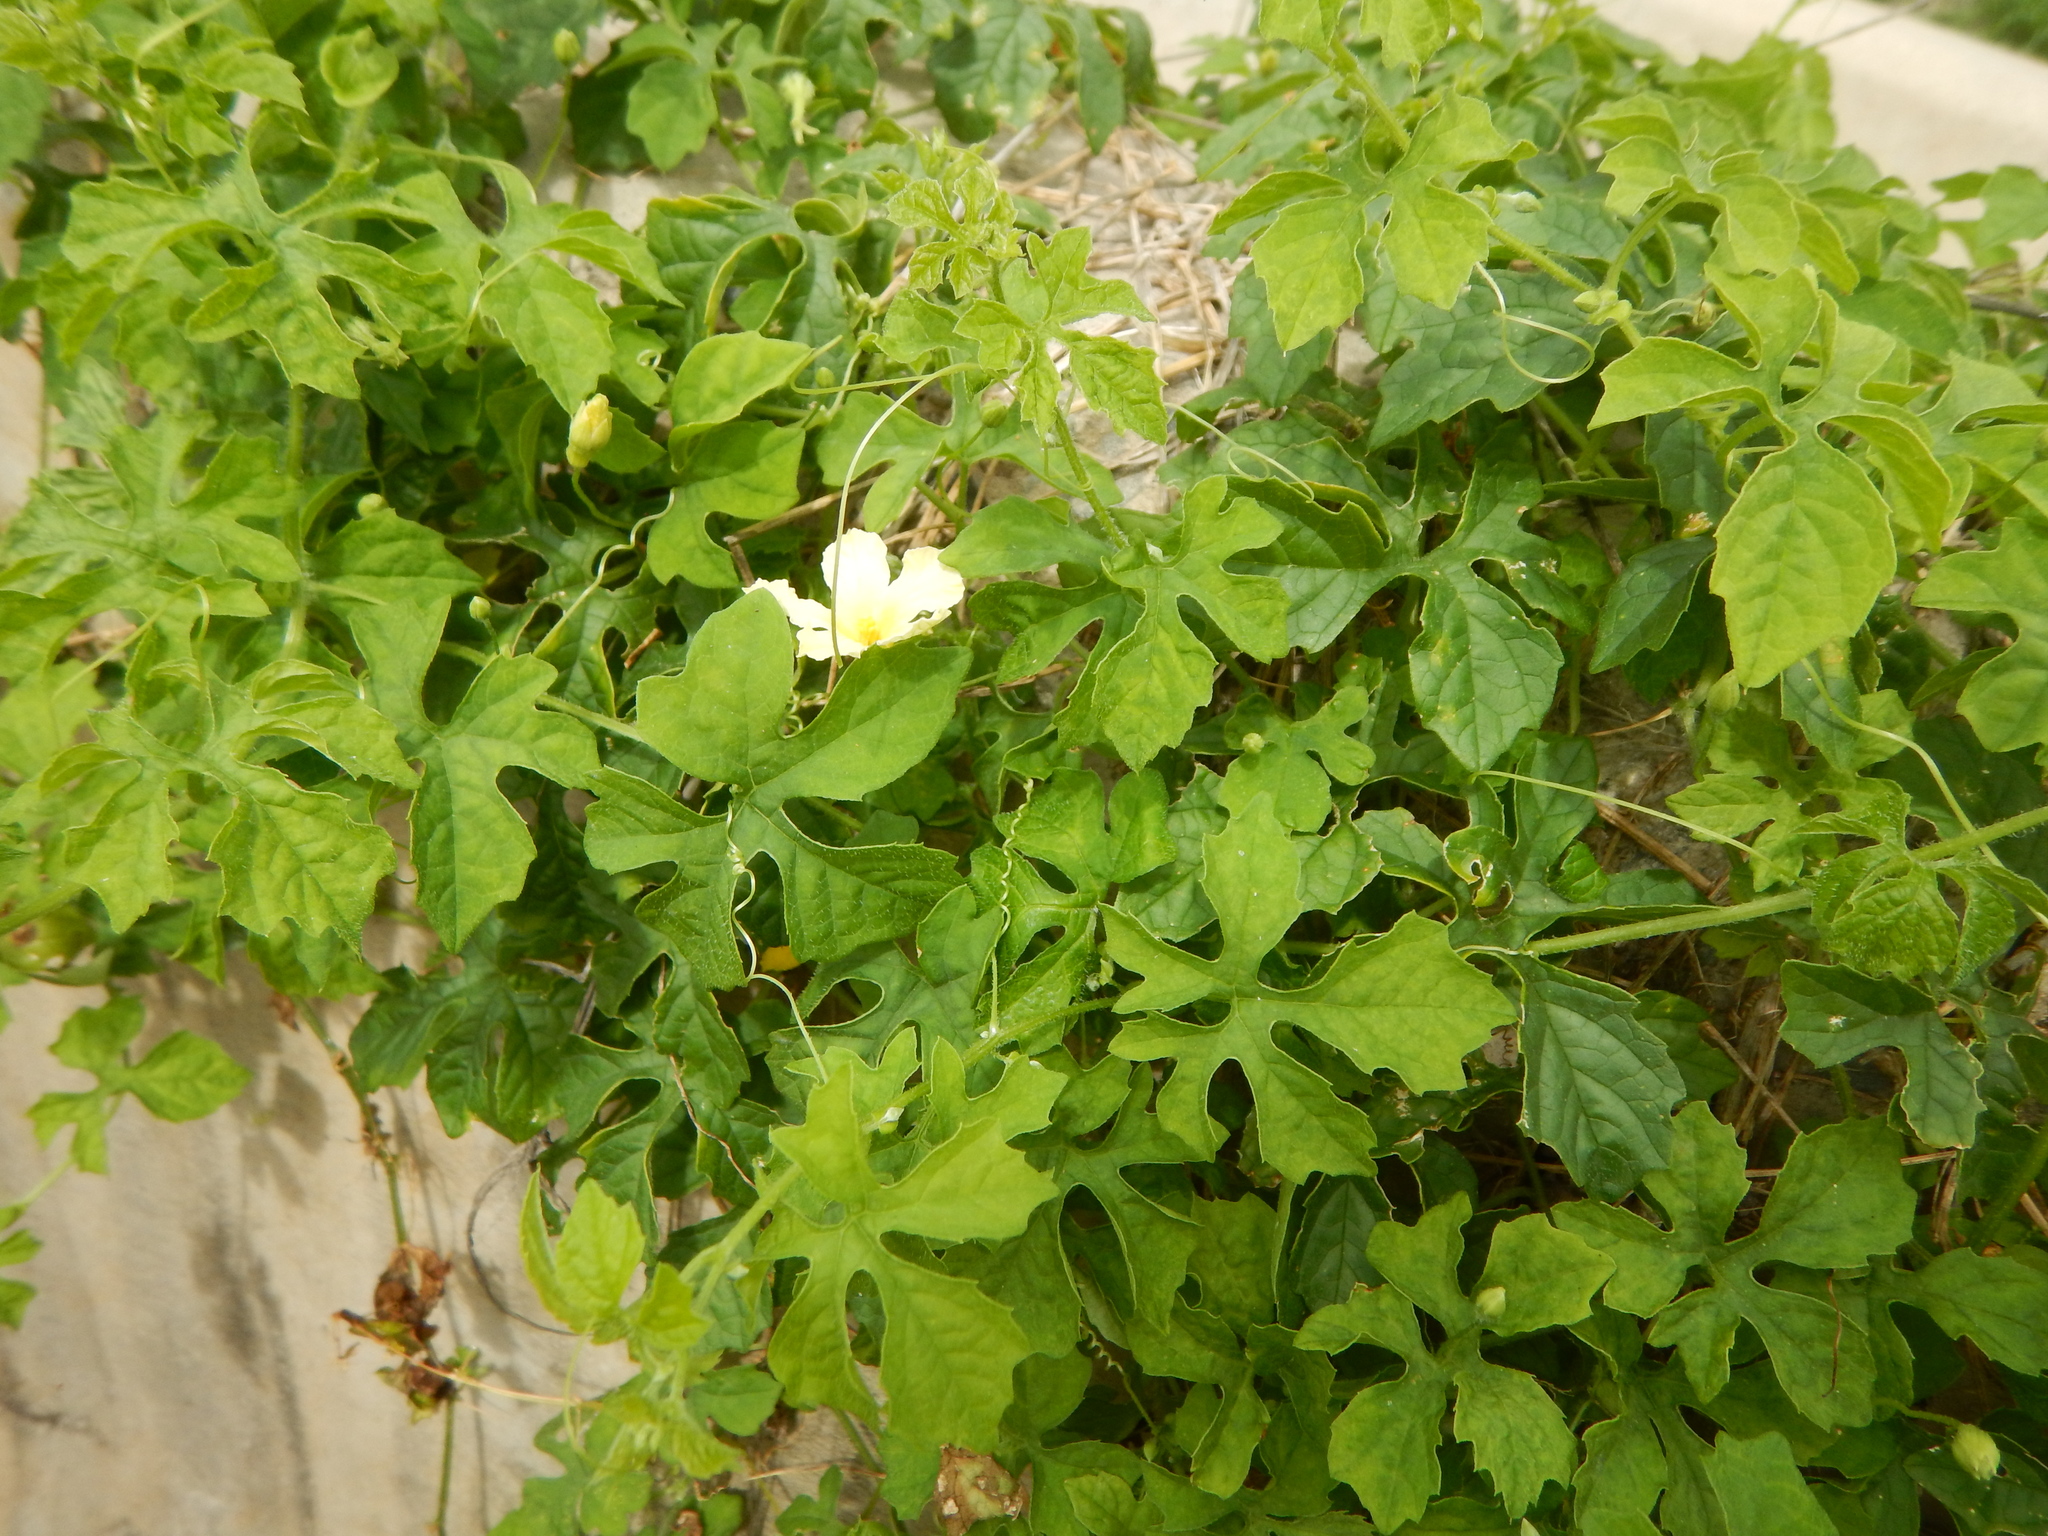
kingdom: Plantae
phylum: Tracheophyta
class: Magnoliopsida
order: Cucurbitales
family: Cucurbitaceae
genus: Momordica
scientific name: Momordica charantia
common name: Balsampear
